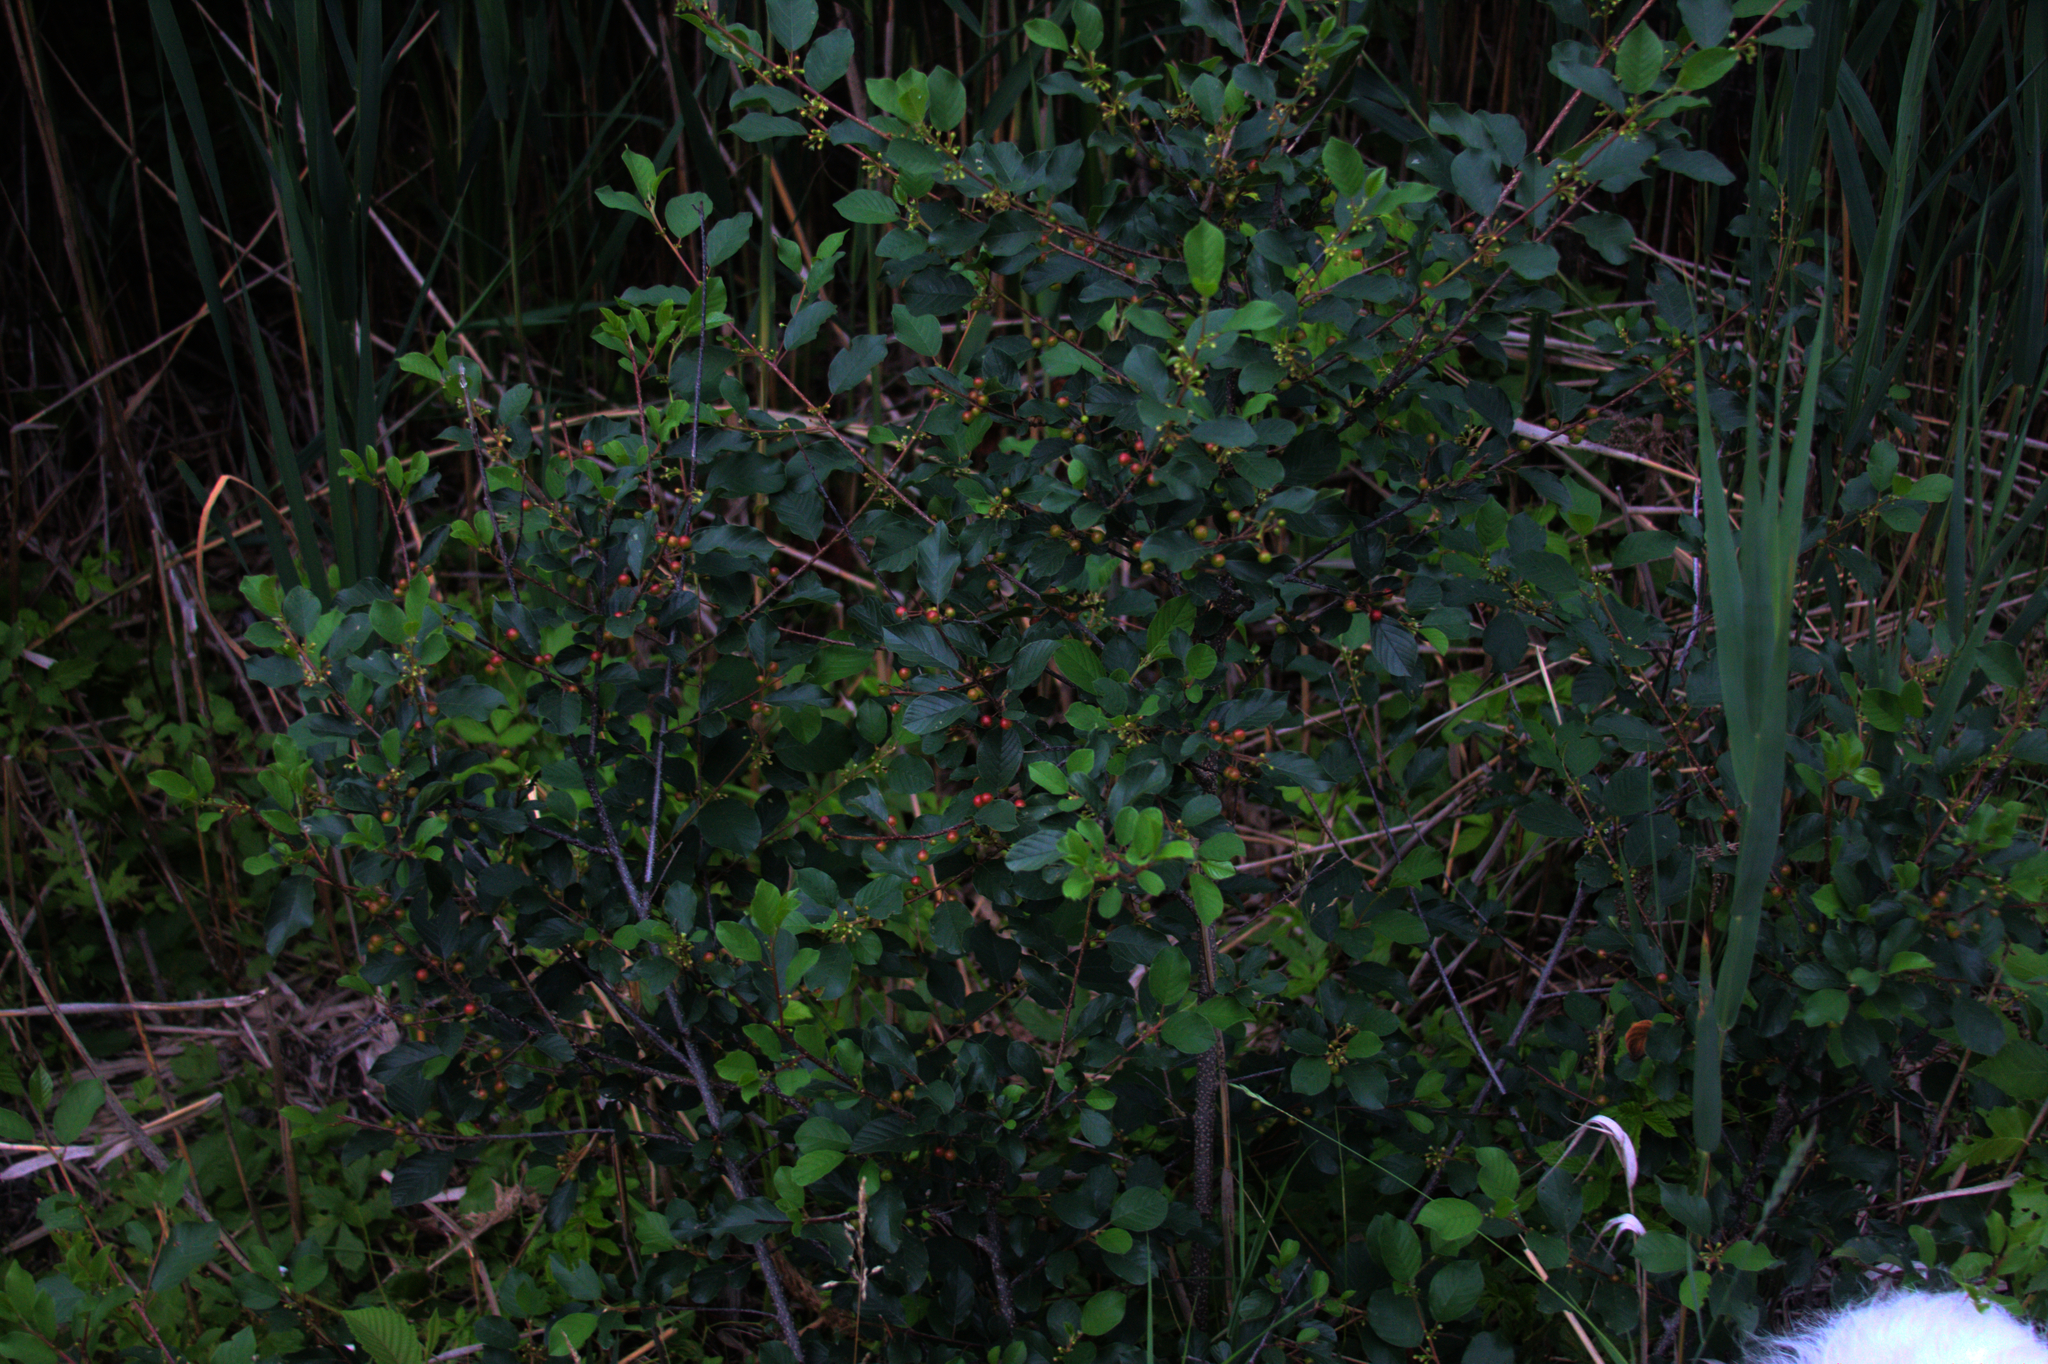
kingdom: Plantae
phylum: Tracheophyta
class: Magnoliopsida
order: Rosales
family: Rhamnaceae
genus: Frangula
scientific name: Frangula alnus
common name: Alder buckthorn
